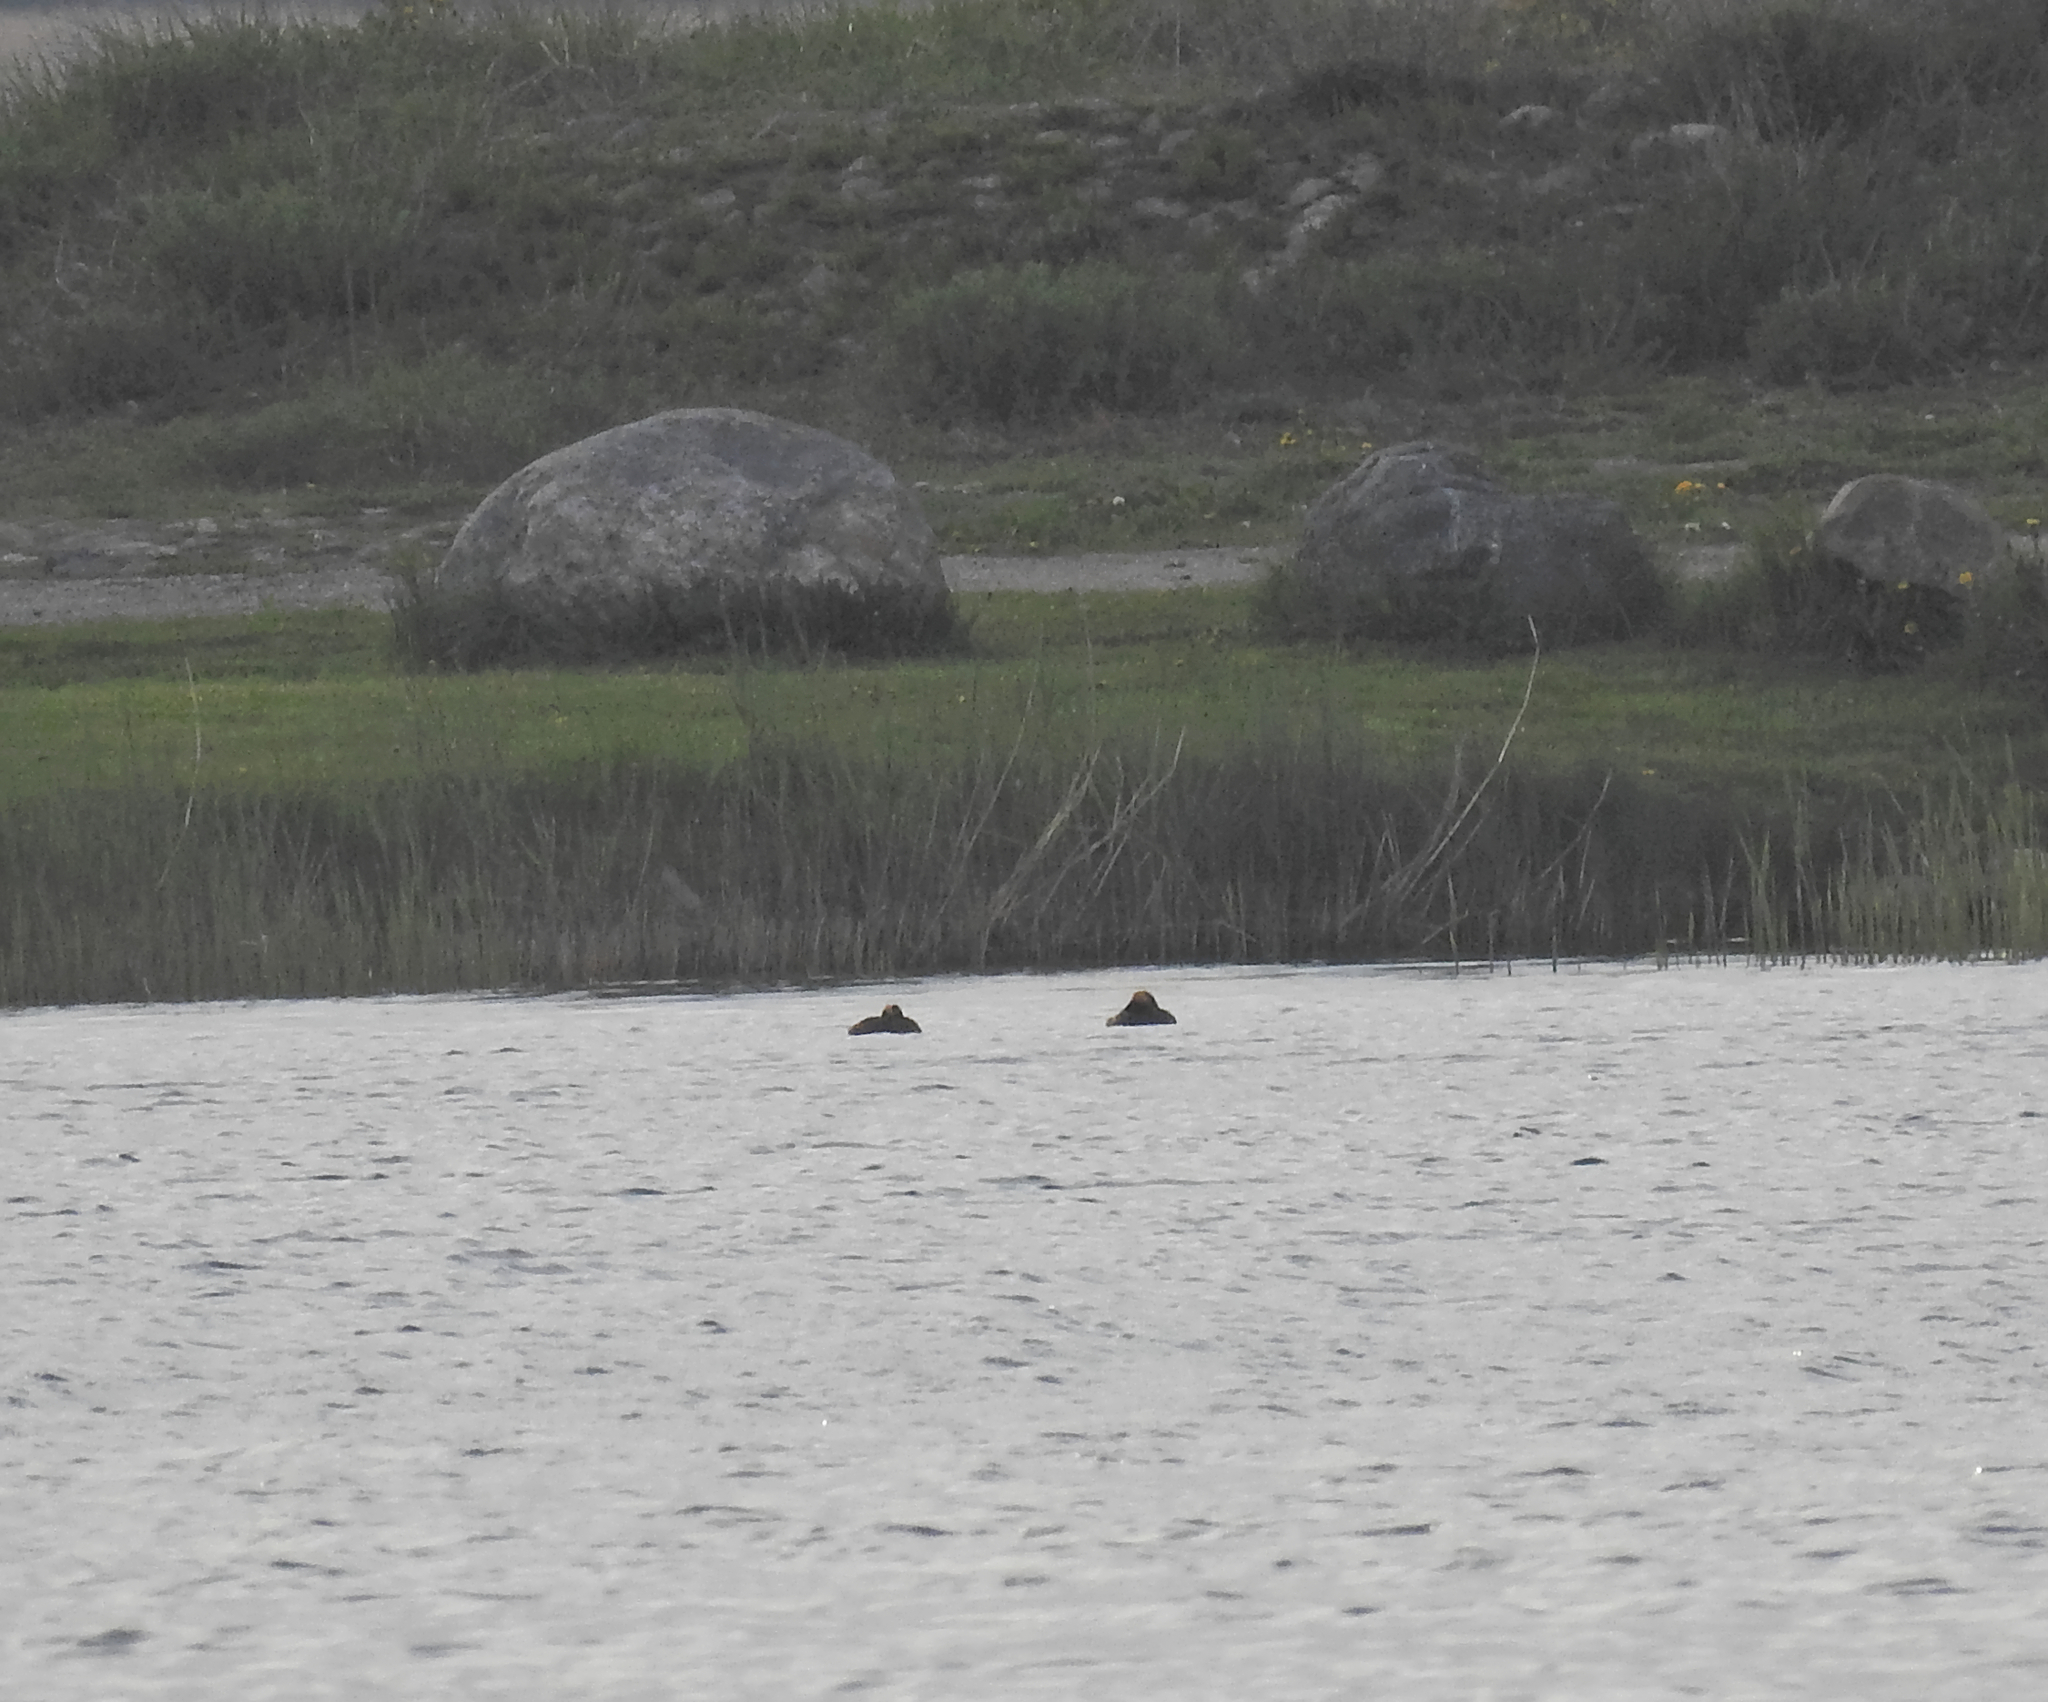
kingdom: Animalia
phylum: Chordata
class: Aves
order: Podicipediformes
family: Podicipedidae
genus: Podiceps
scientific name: Podiceps auritus
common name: Horned grebe
